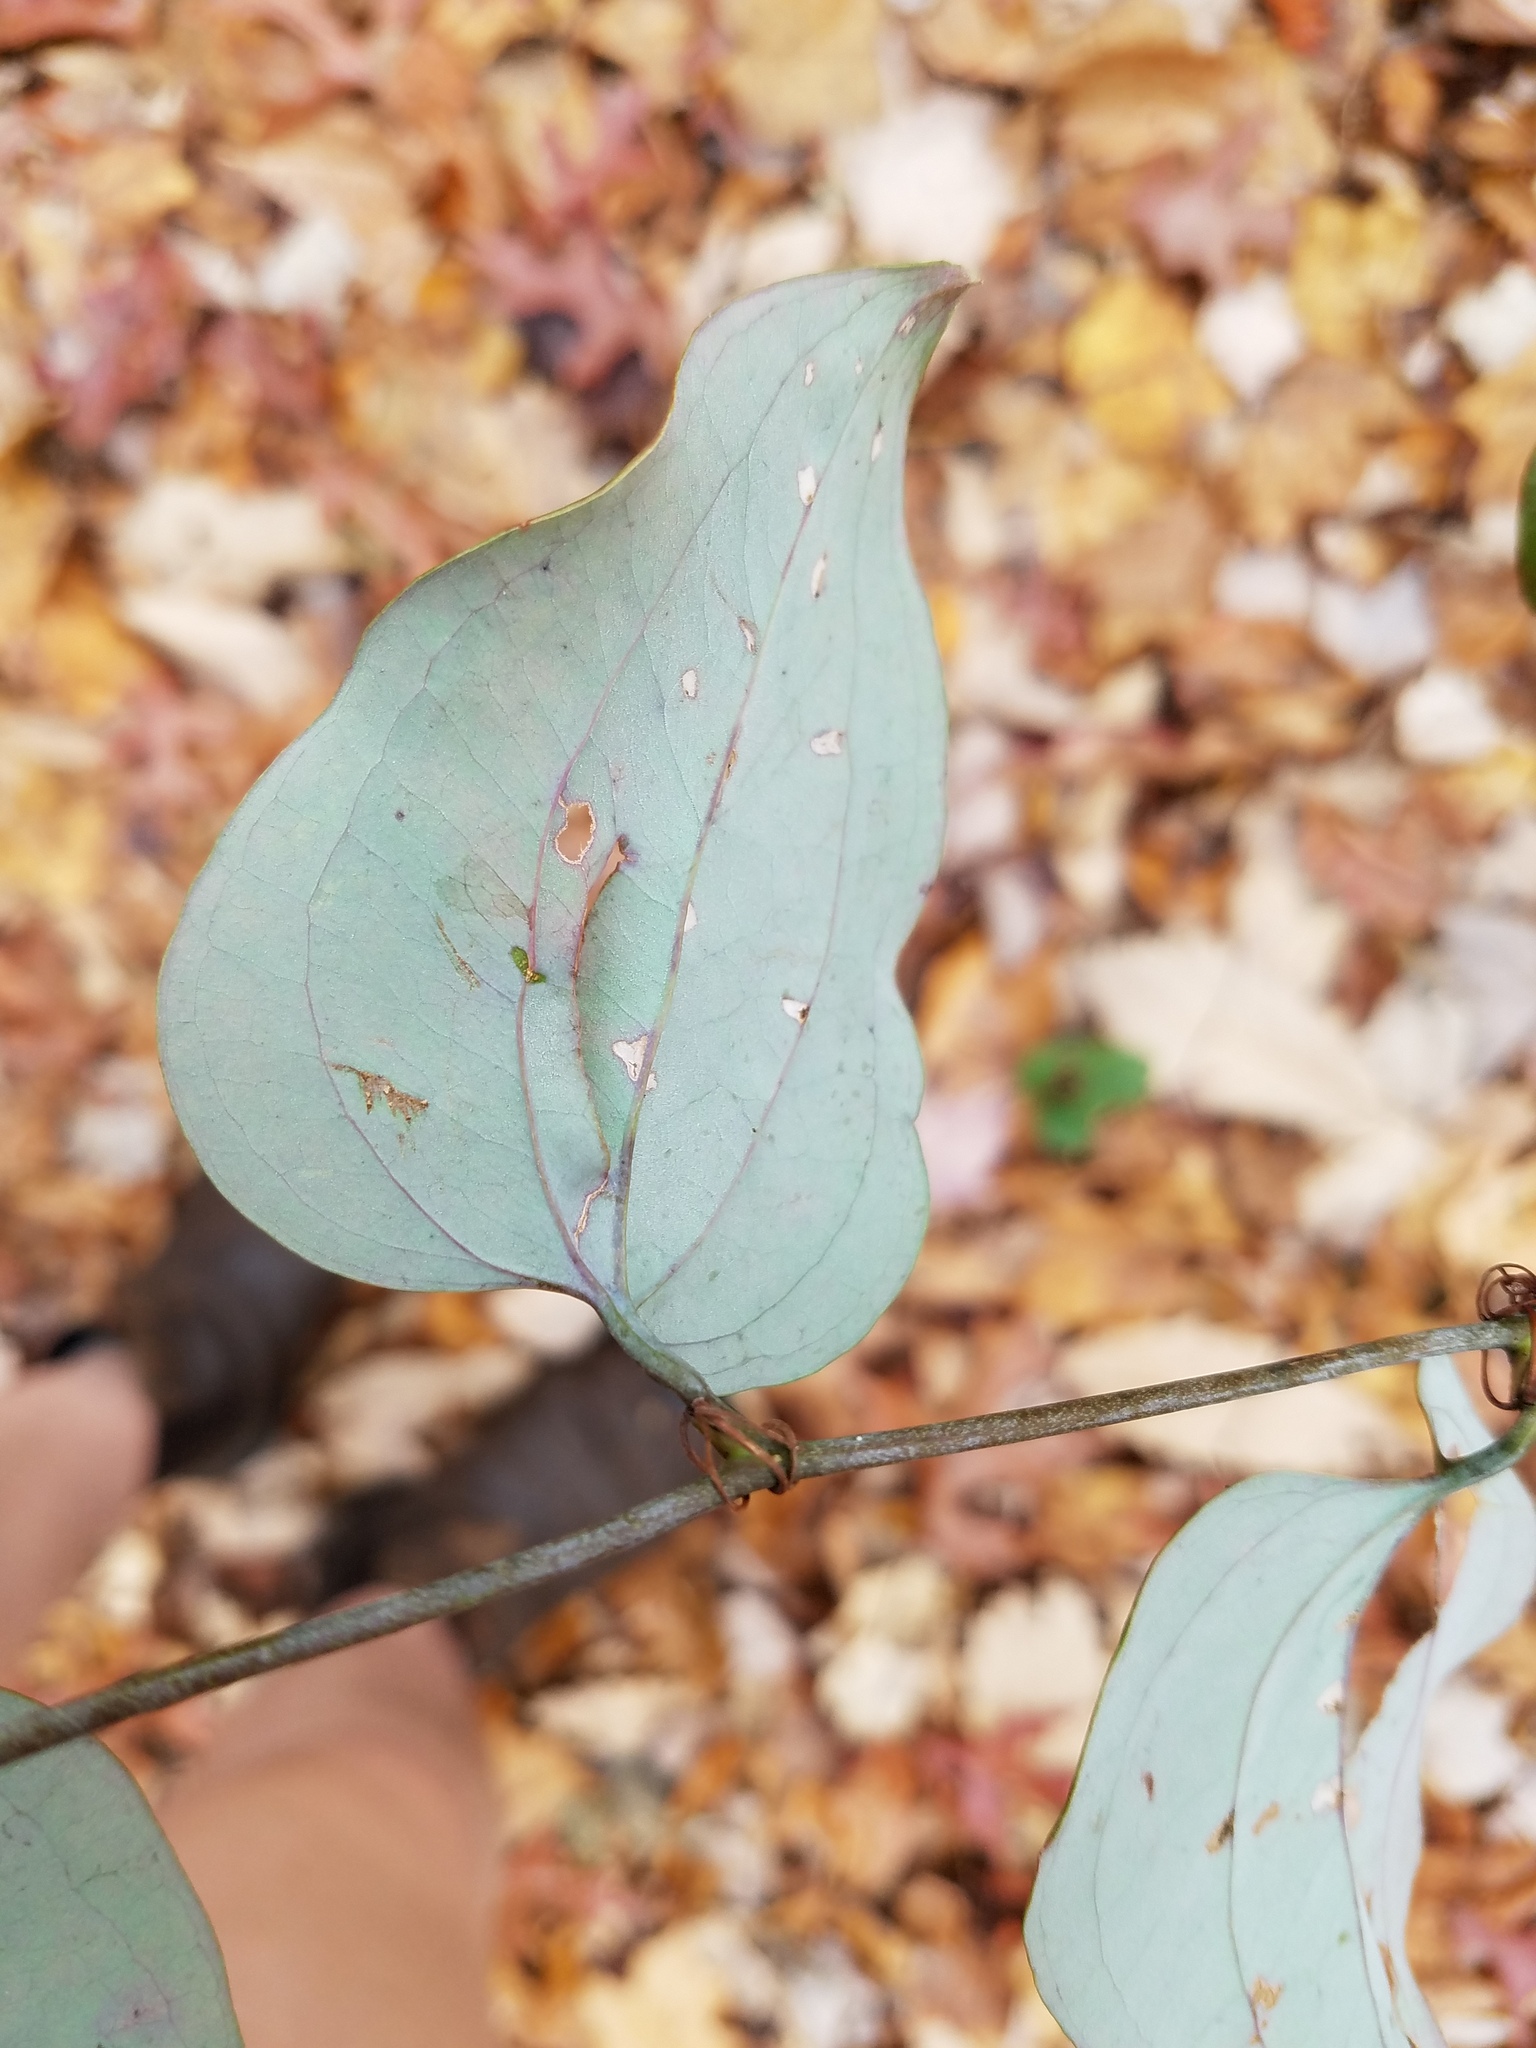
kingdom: Plantae
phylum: Tracheophyta
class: Liliopsida
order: Liliales
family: Smilacaceae
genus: Smilax
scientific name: Smilax glauca
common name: Cat greenbrier
